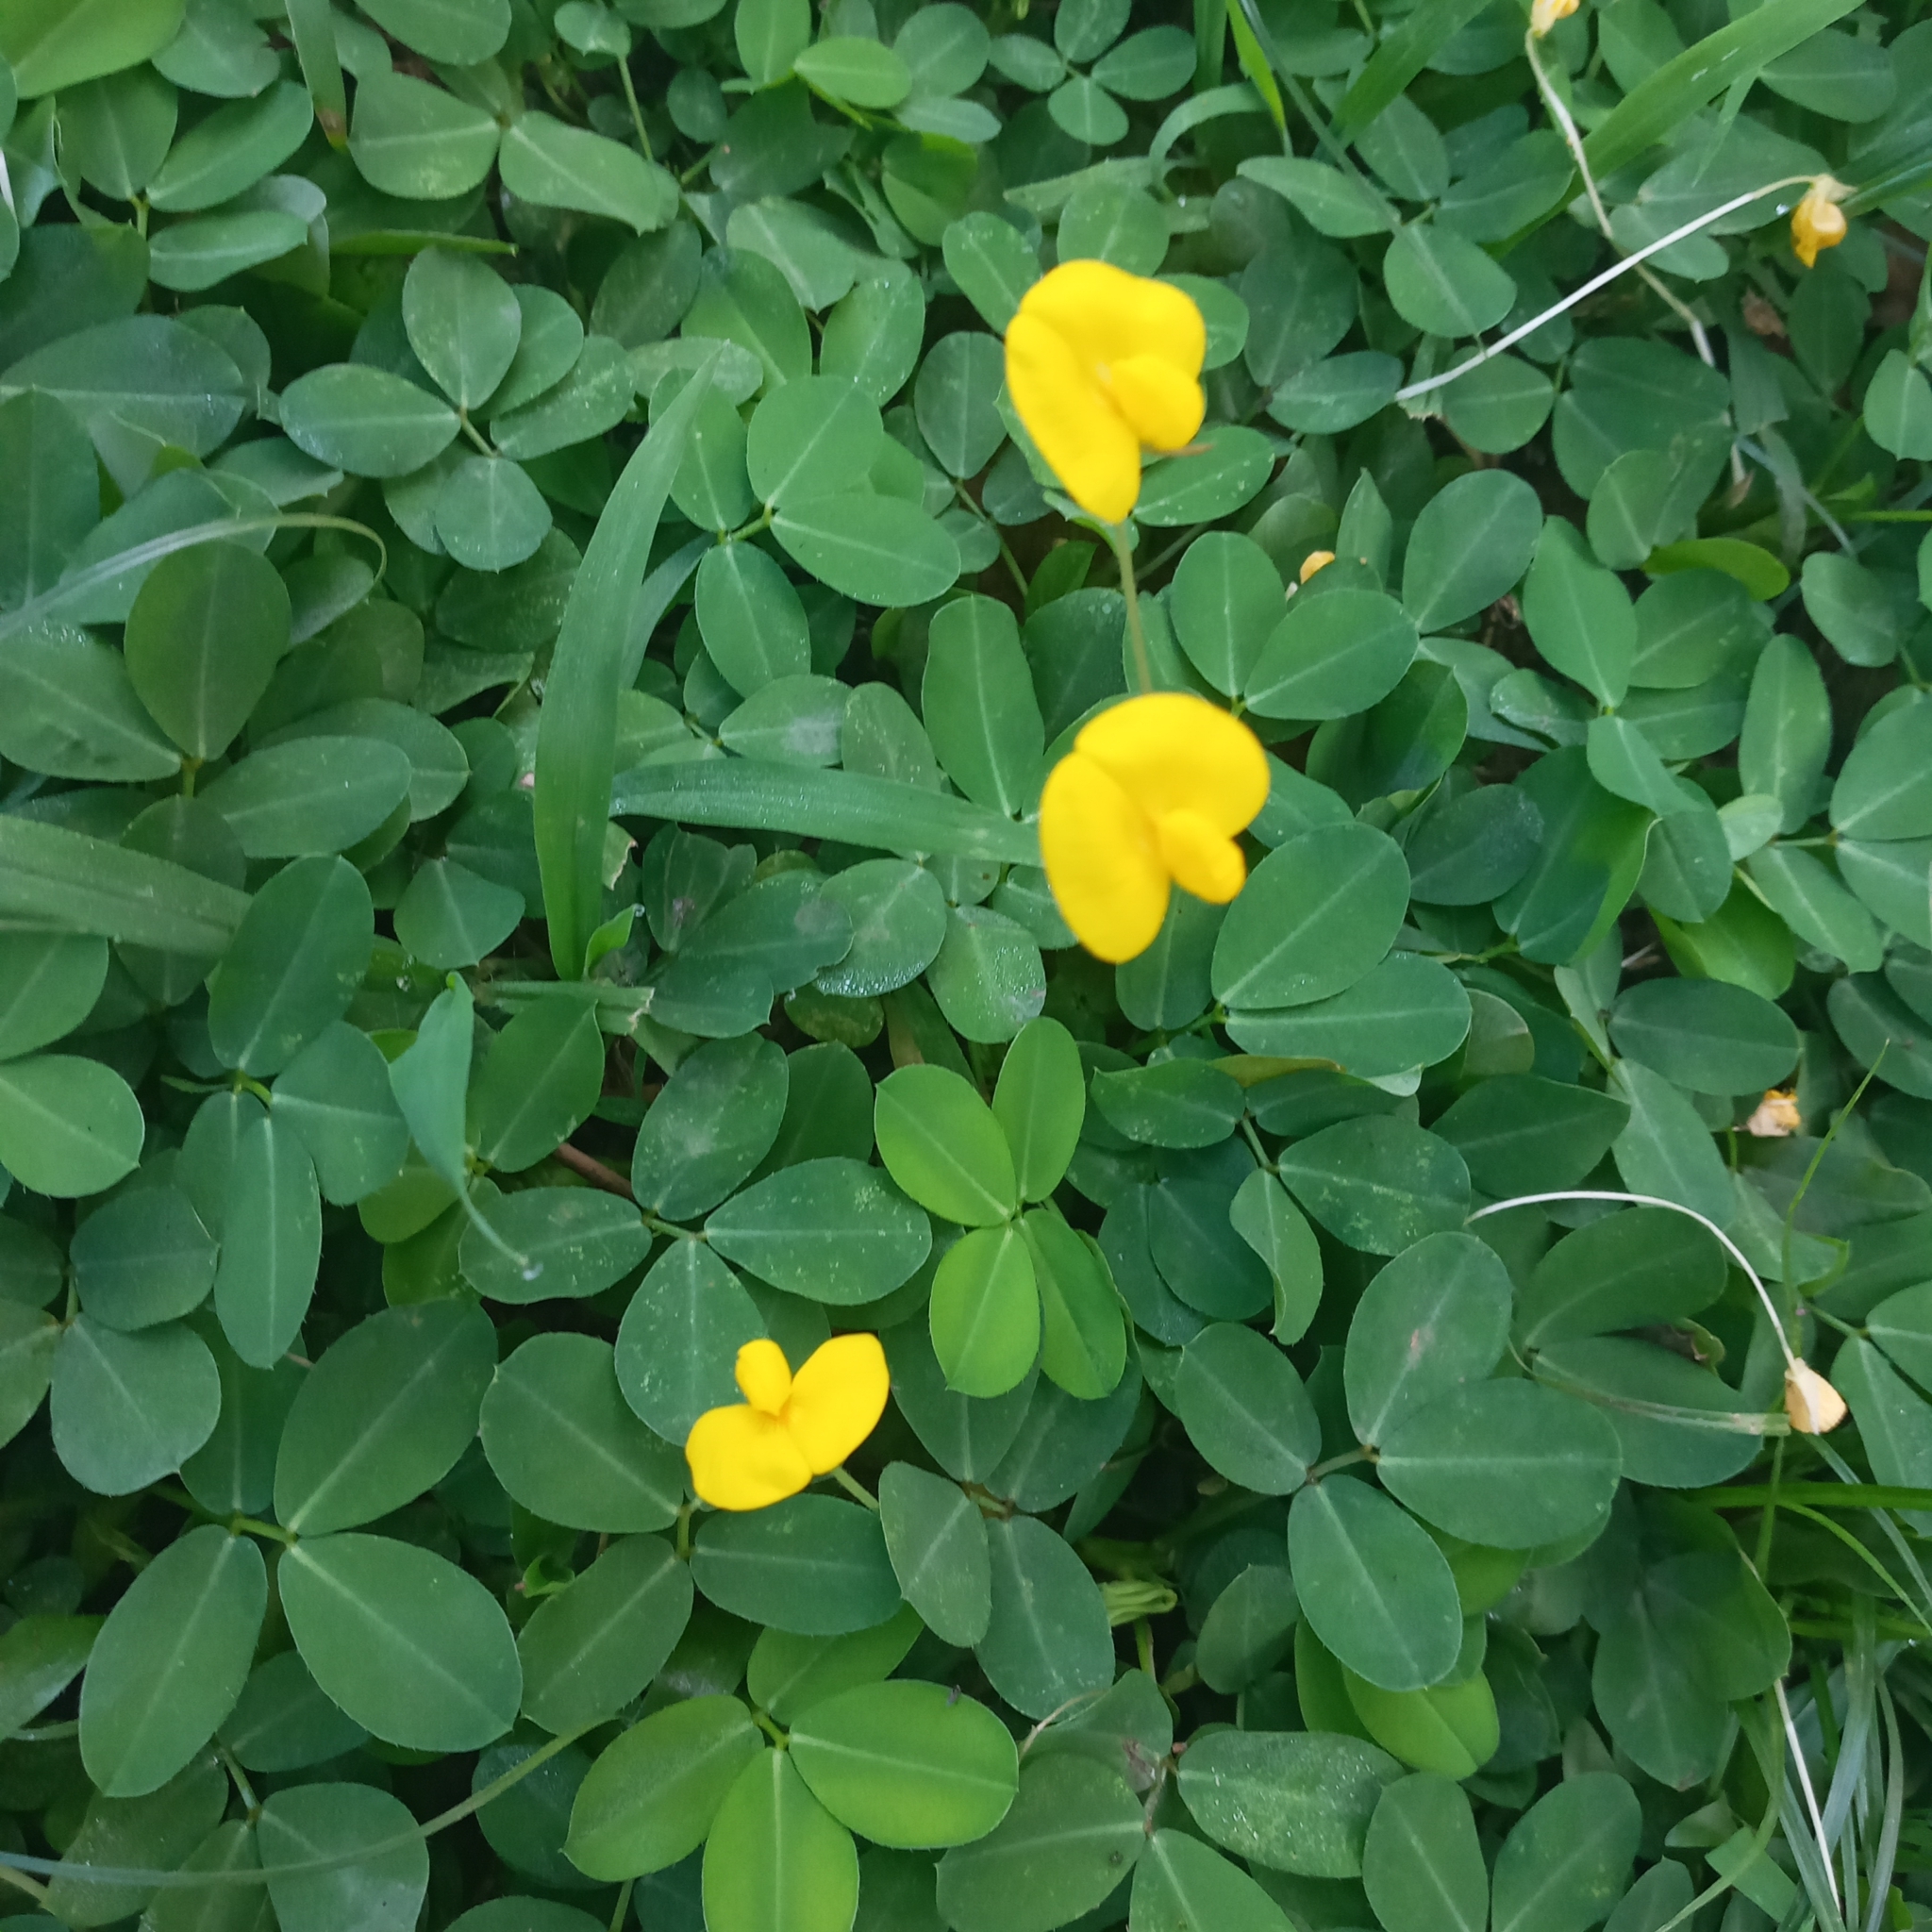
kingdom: Plantae
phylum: Tracheophyta
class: Magnoliopsida
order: Fabales
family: Fabaceae
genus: Arachis
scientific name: Arachis pintoi
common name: Pinto peanut
